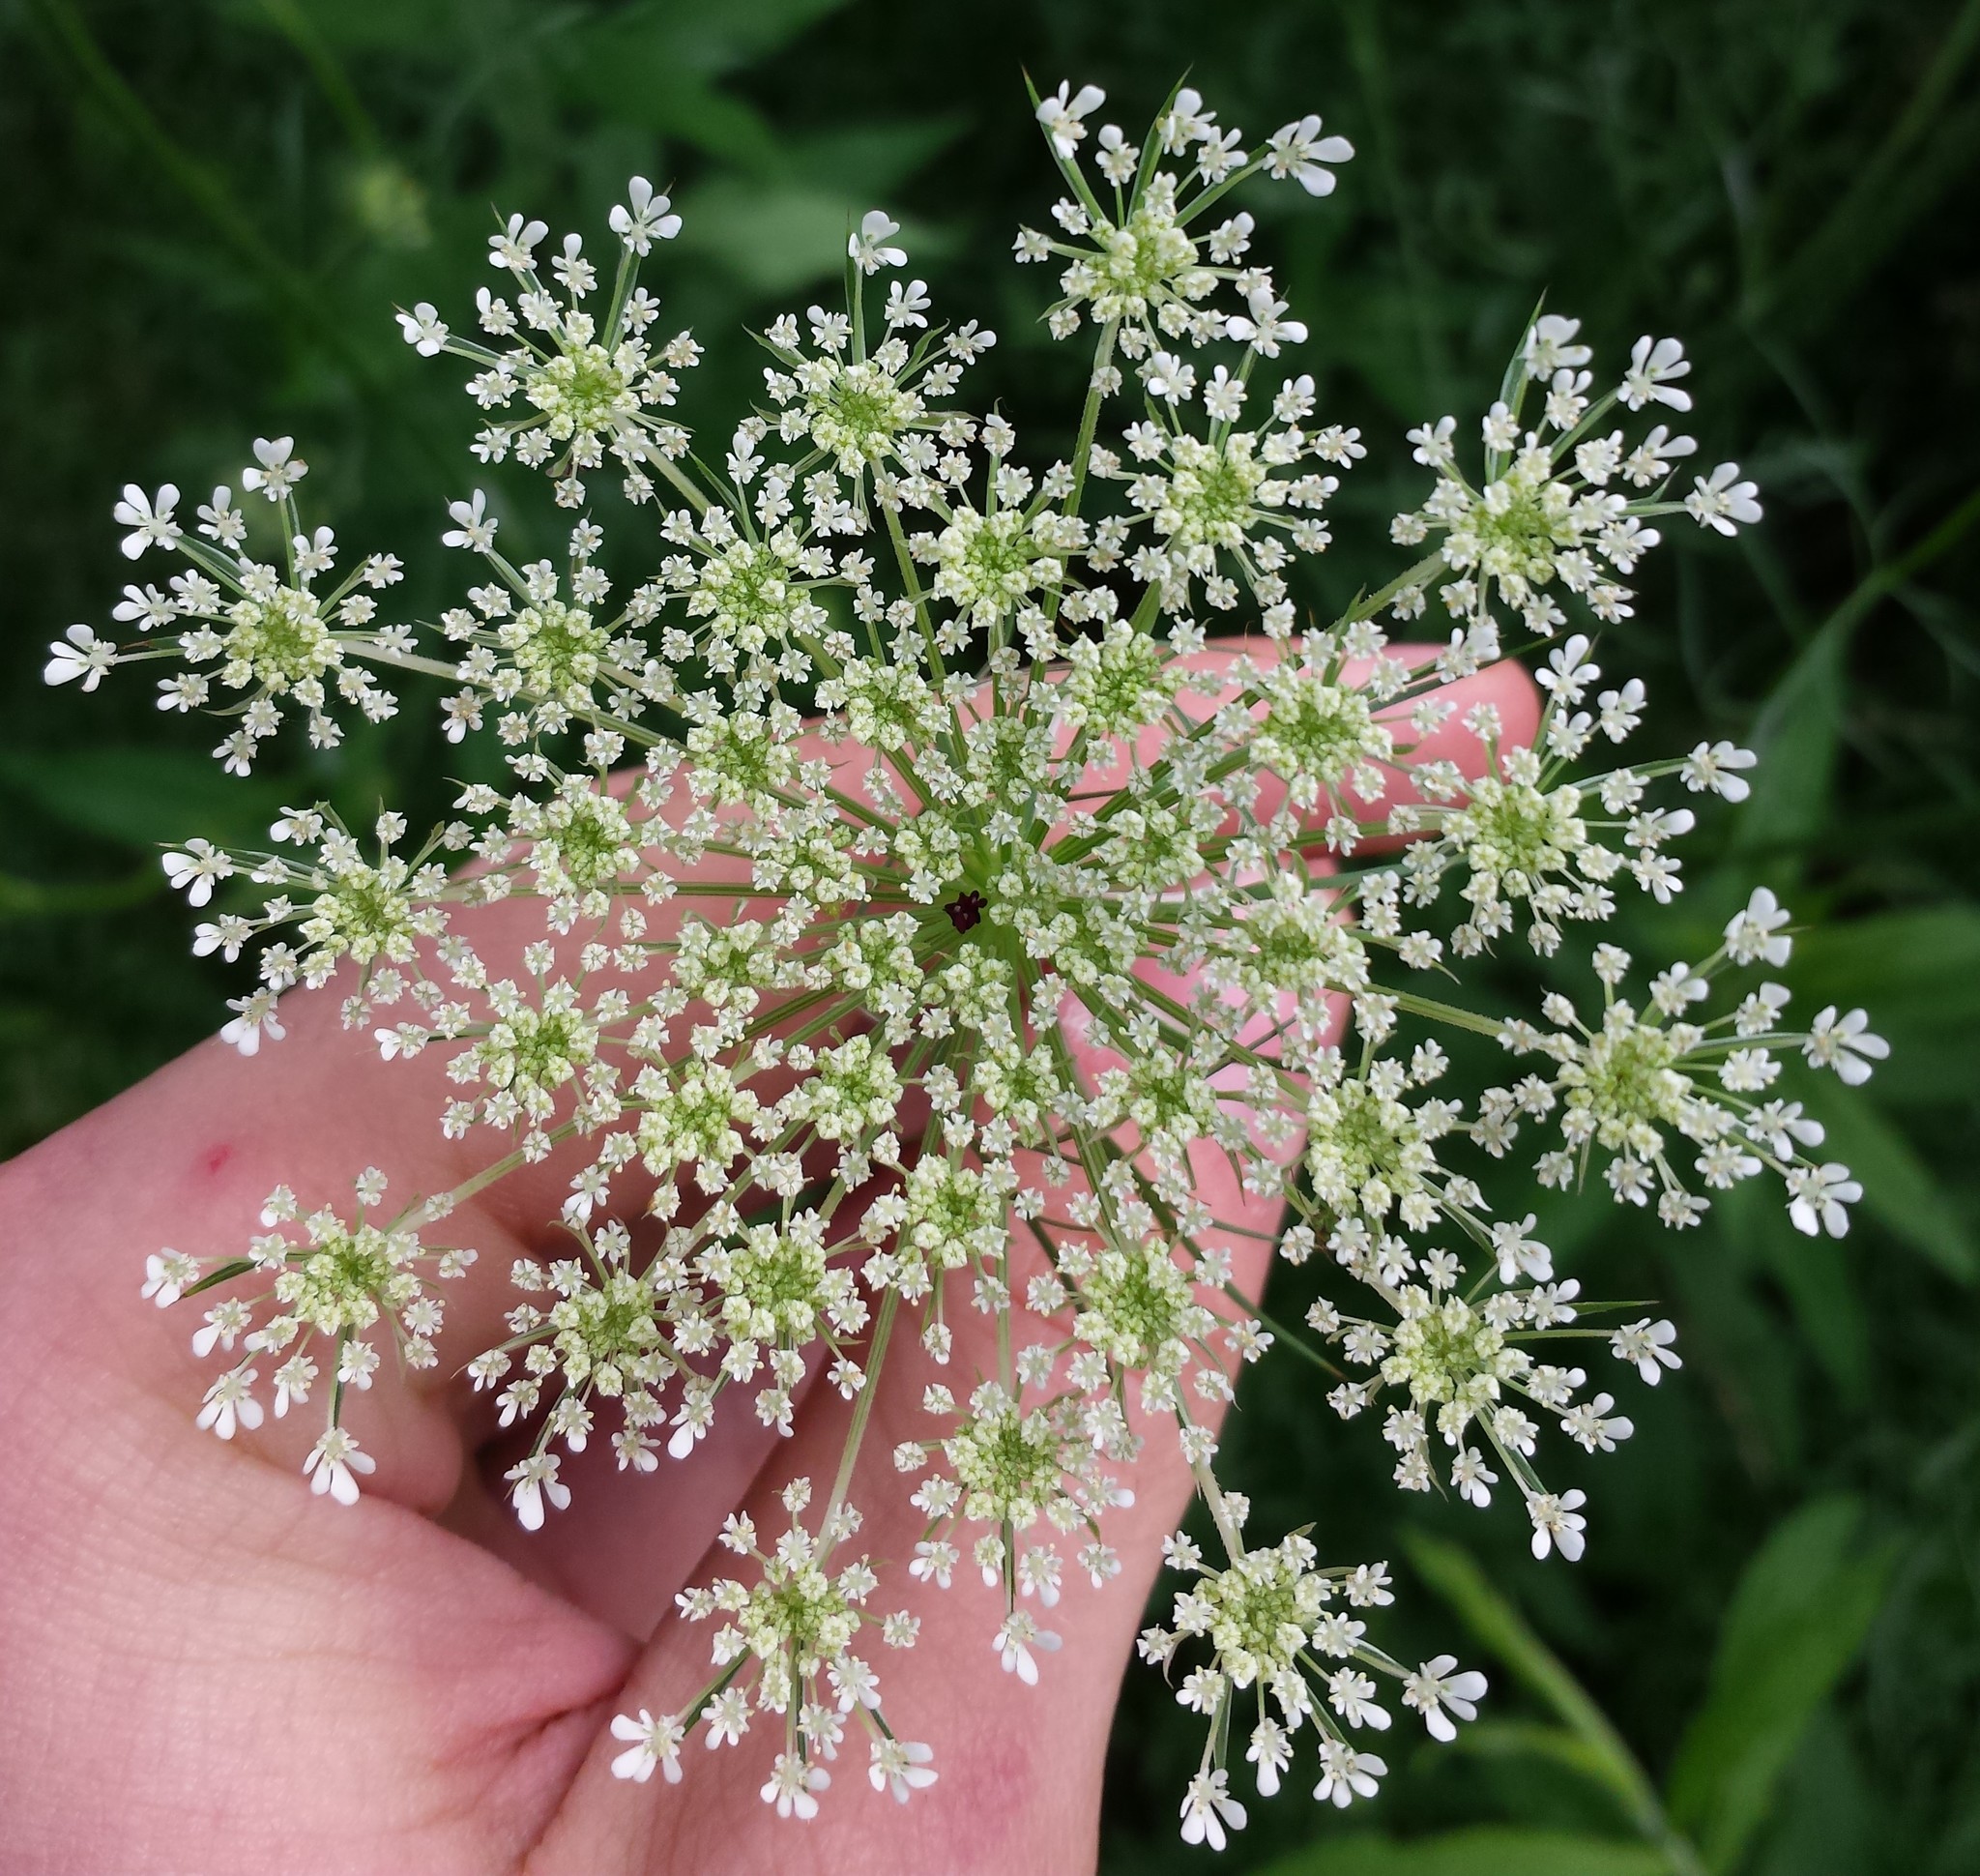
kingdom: Plantae
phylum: Tracheophyta
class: Magnoliopsida
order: Apiales
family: Apiaceae
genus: Daucus
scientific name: Daucus carota
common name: Wild carrot
